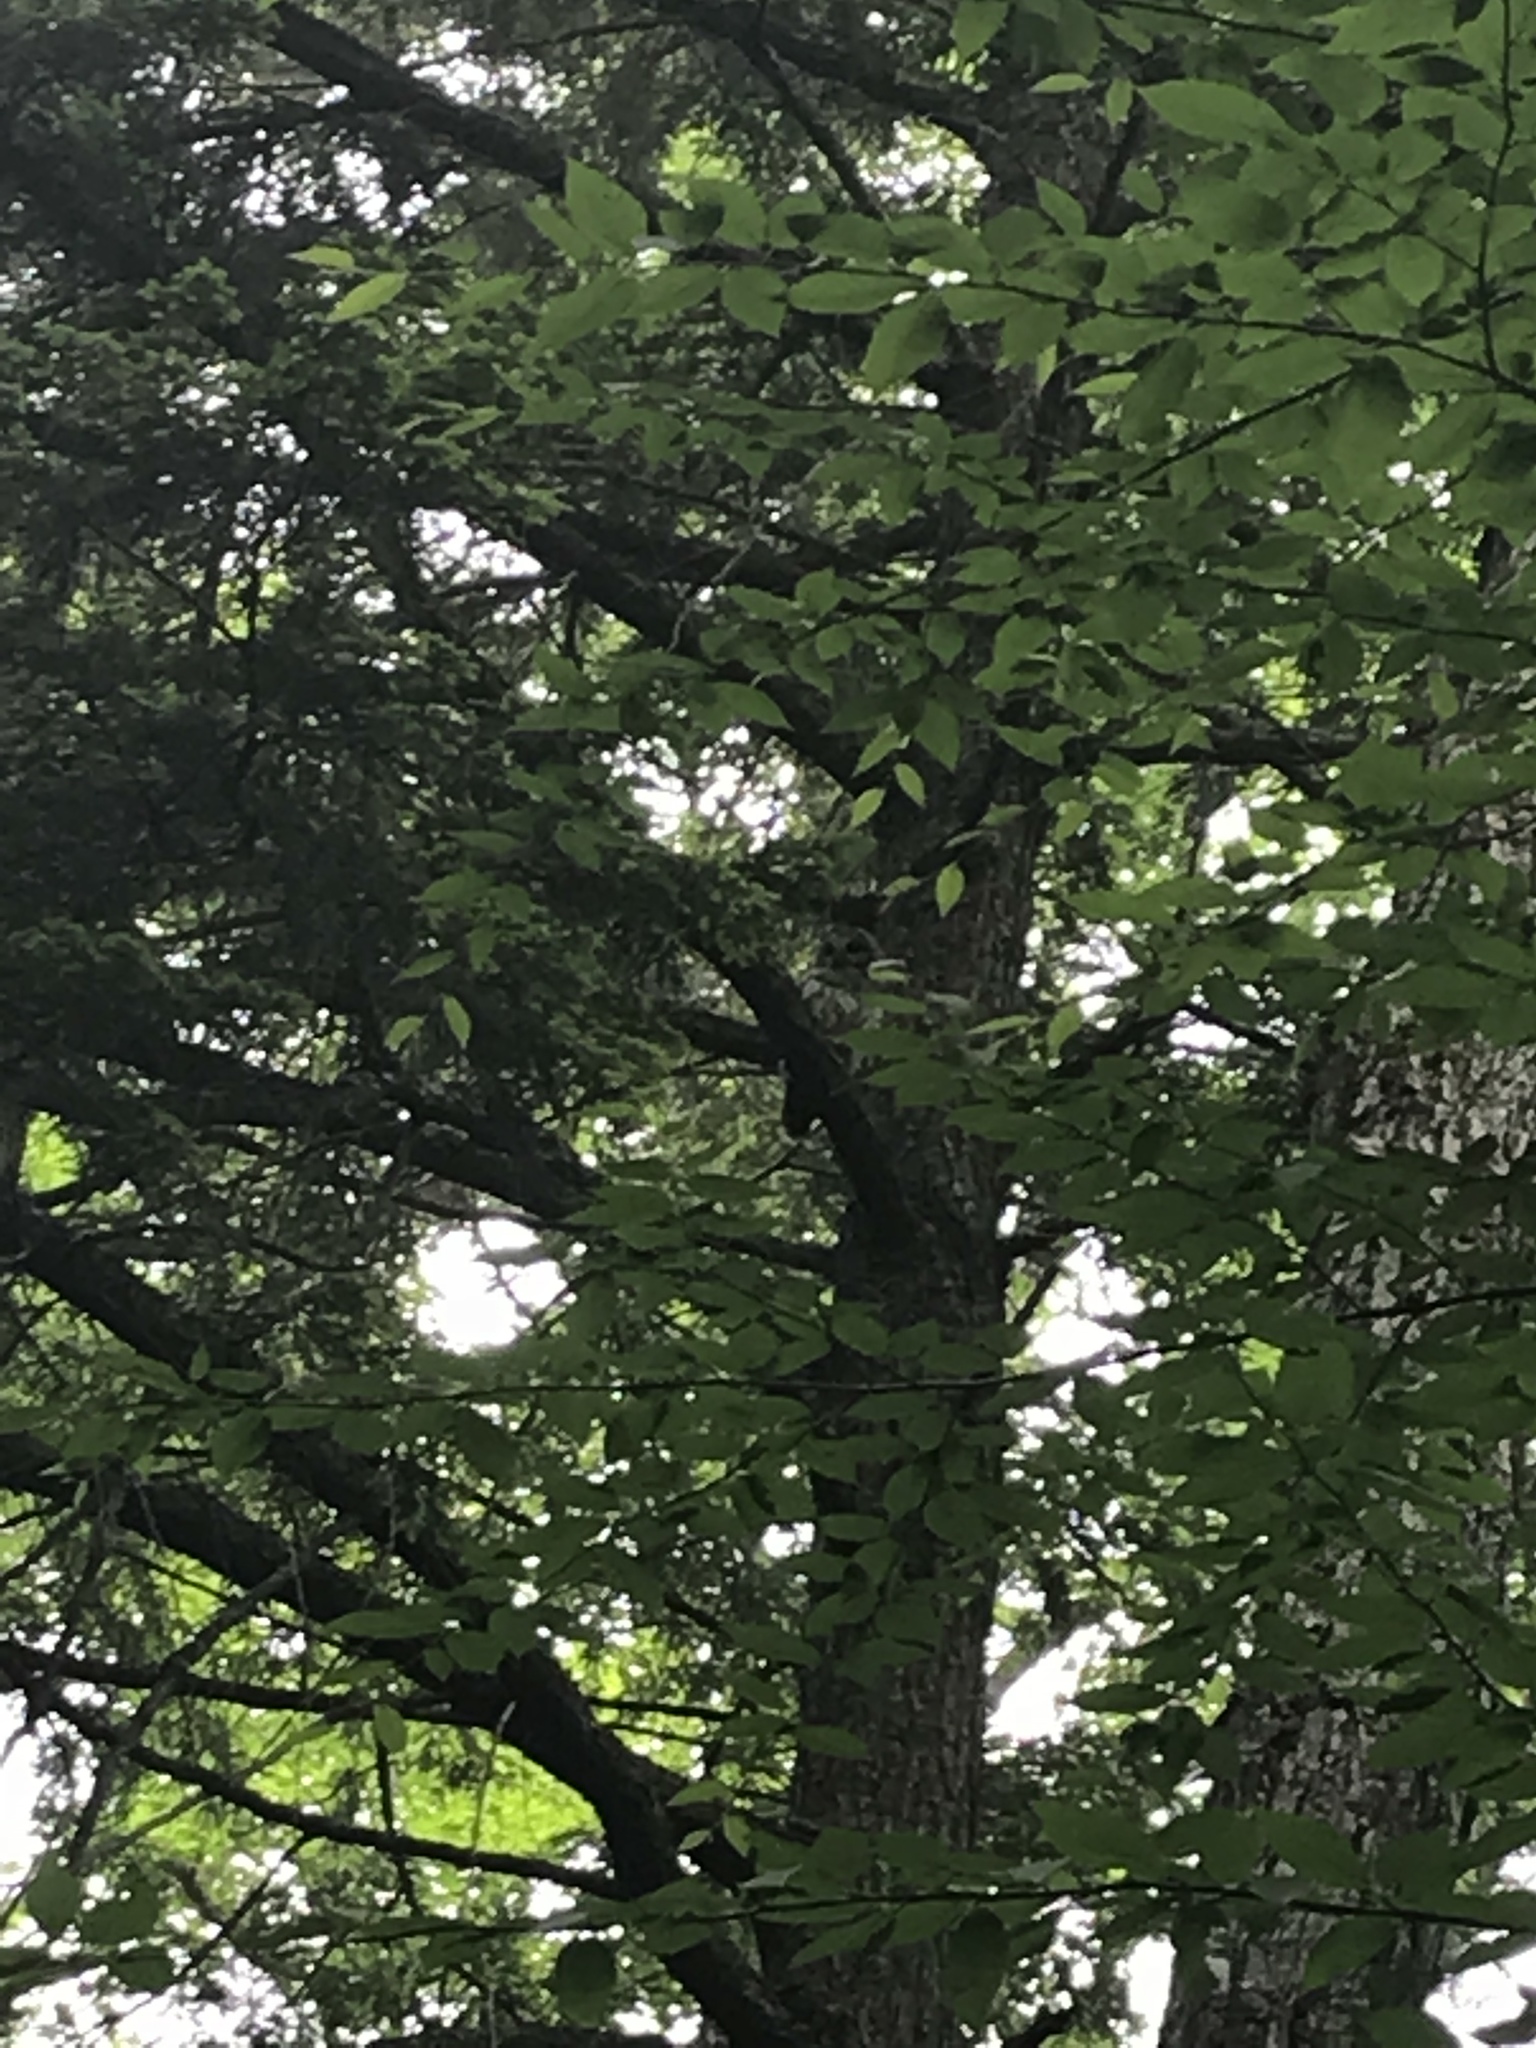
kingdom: Animalia
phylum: Chordata
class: Aves
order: Strigiformes
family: Strigidae
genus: Strix
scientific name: Strix varia
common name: Barred owl
